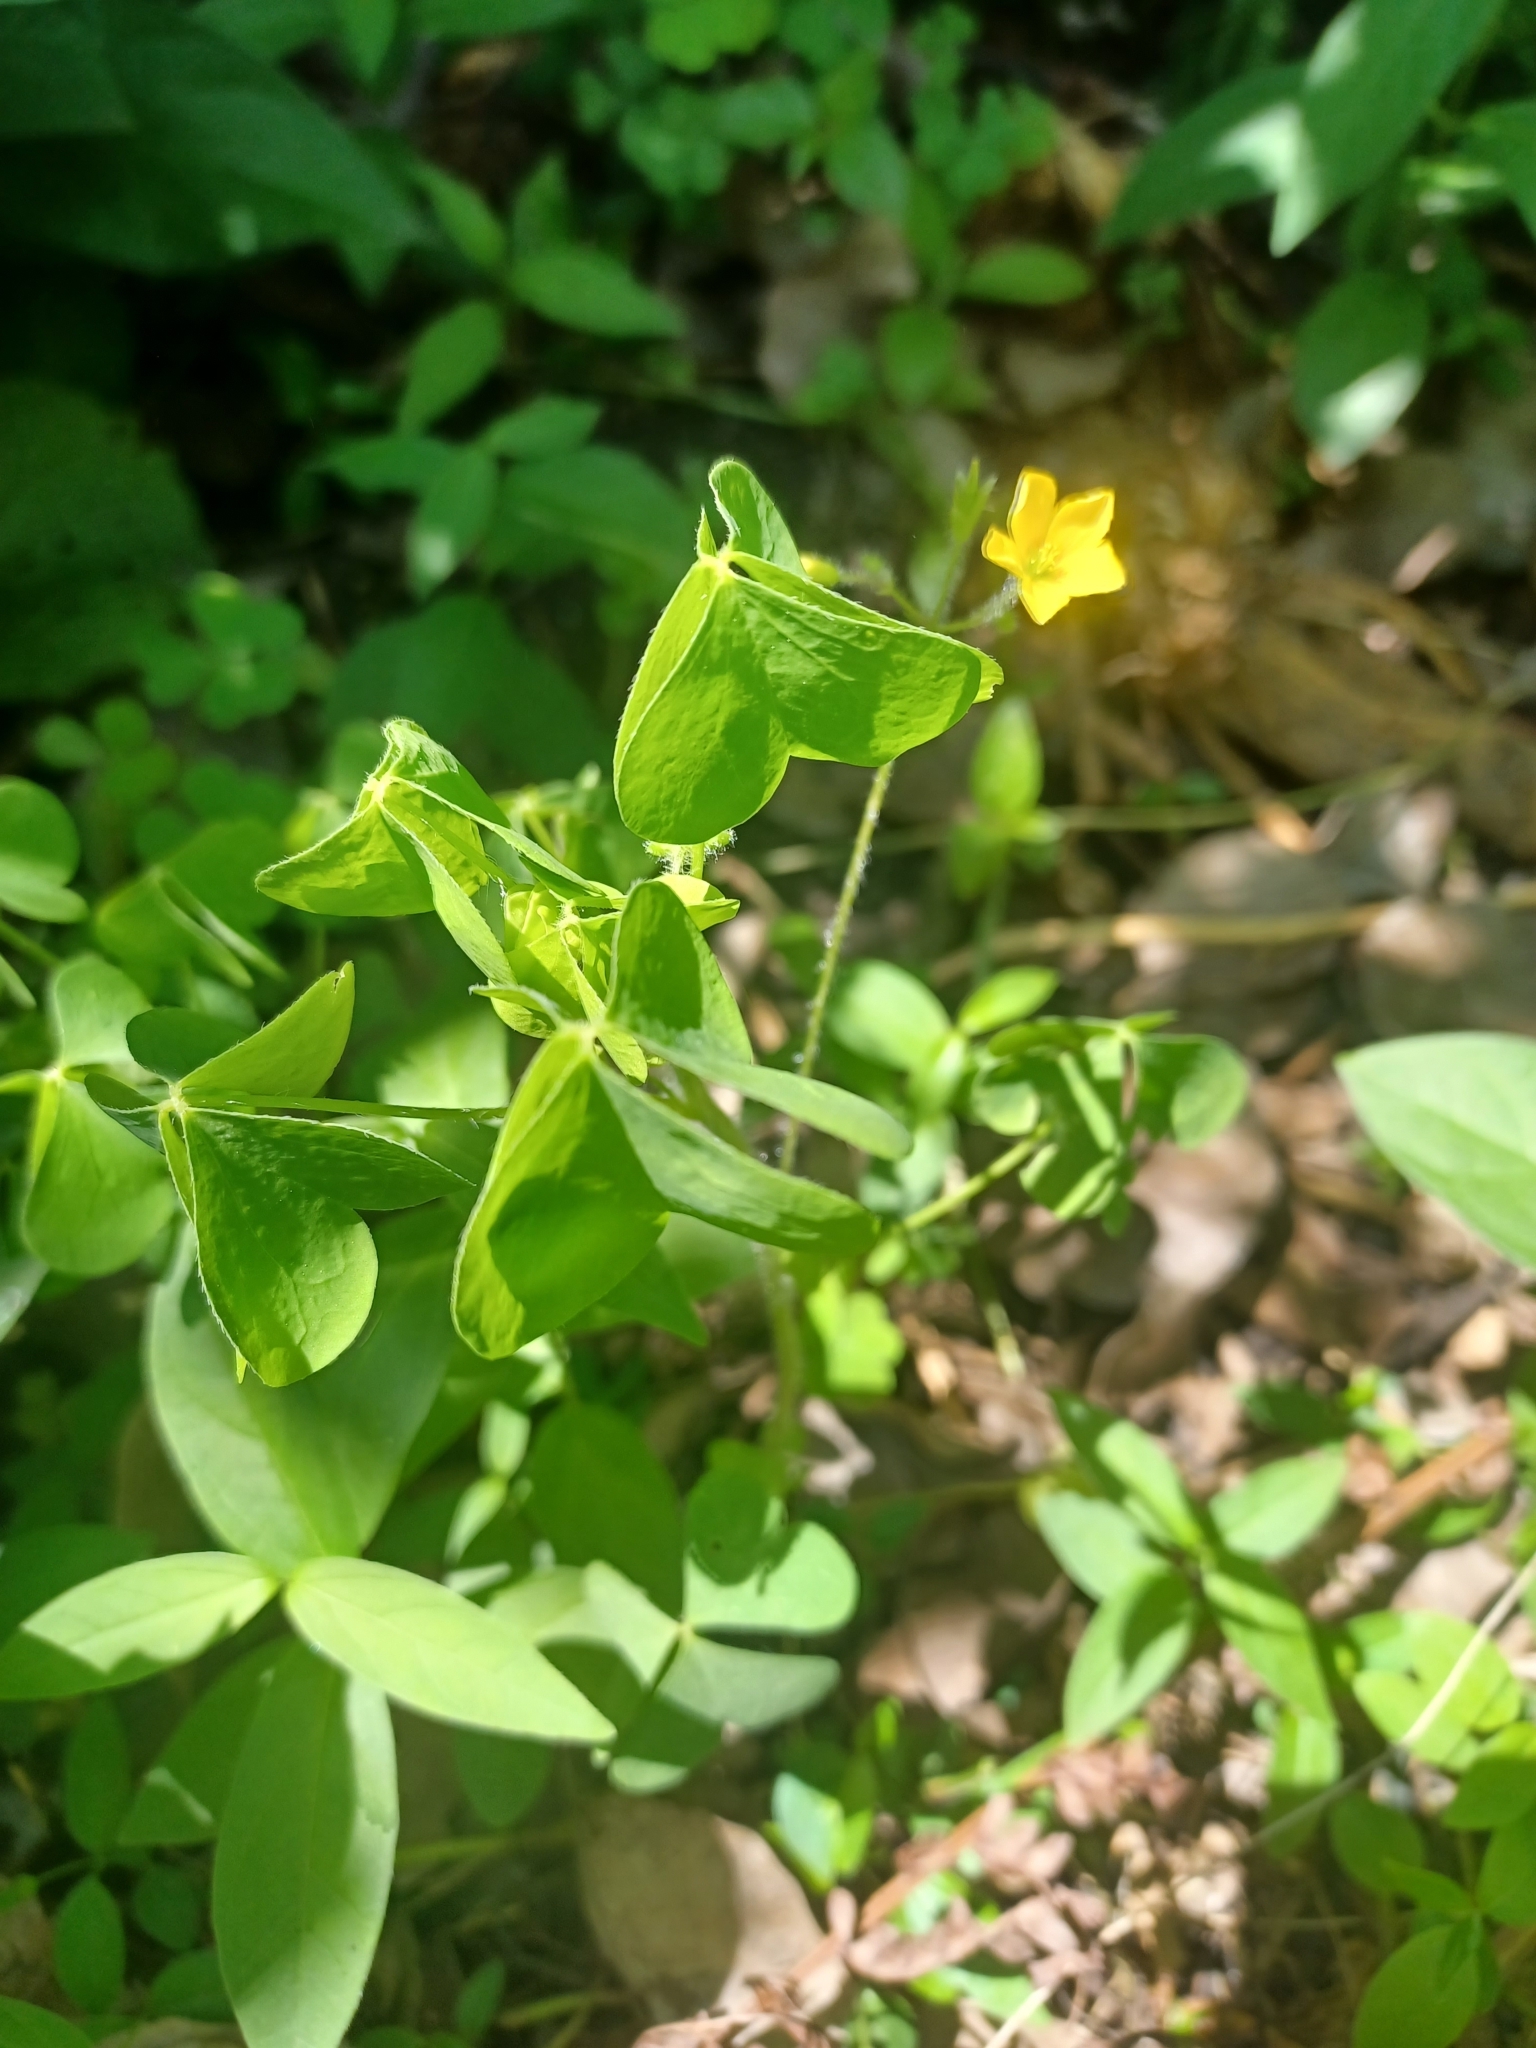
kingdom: Plantae
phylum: Tracheophyta
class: Magnoliopsida
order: Oxalidales
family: Oxalidaceae
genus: Oxalis
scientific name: Oxalis stricta
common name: Upright yellow-sorrel
